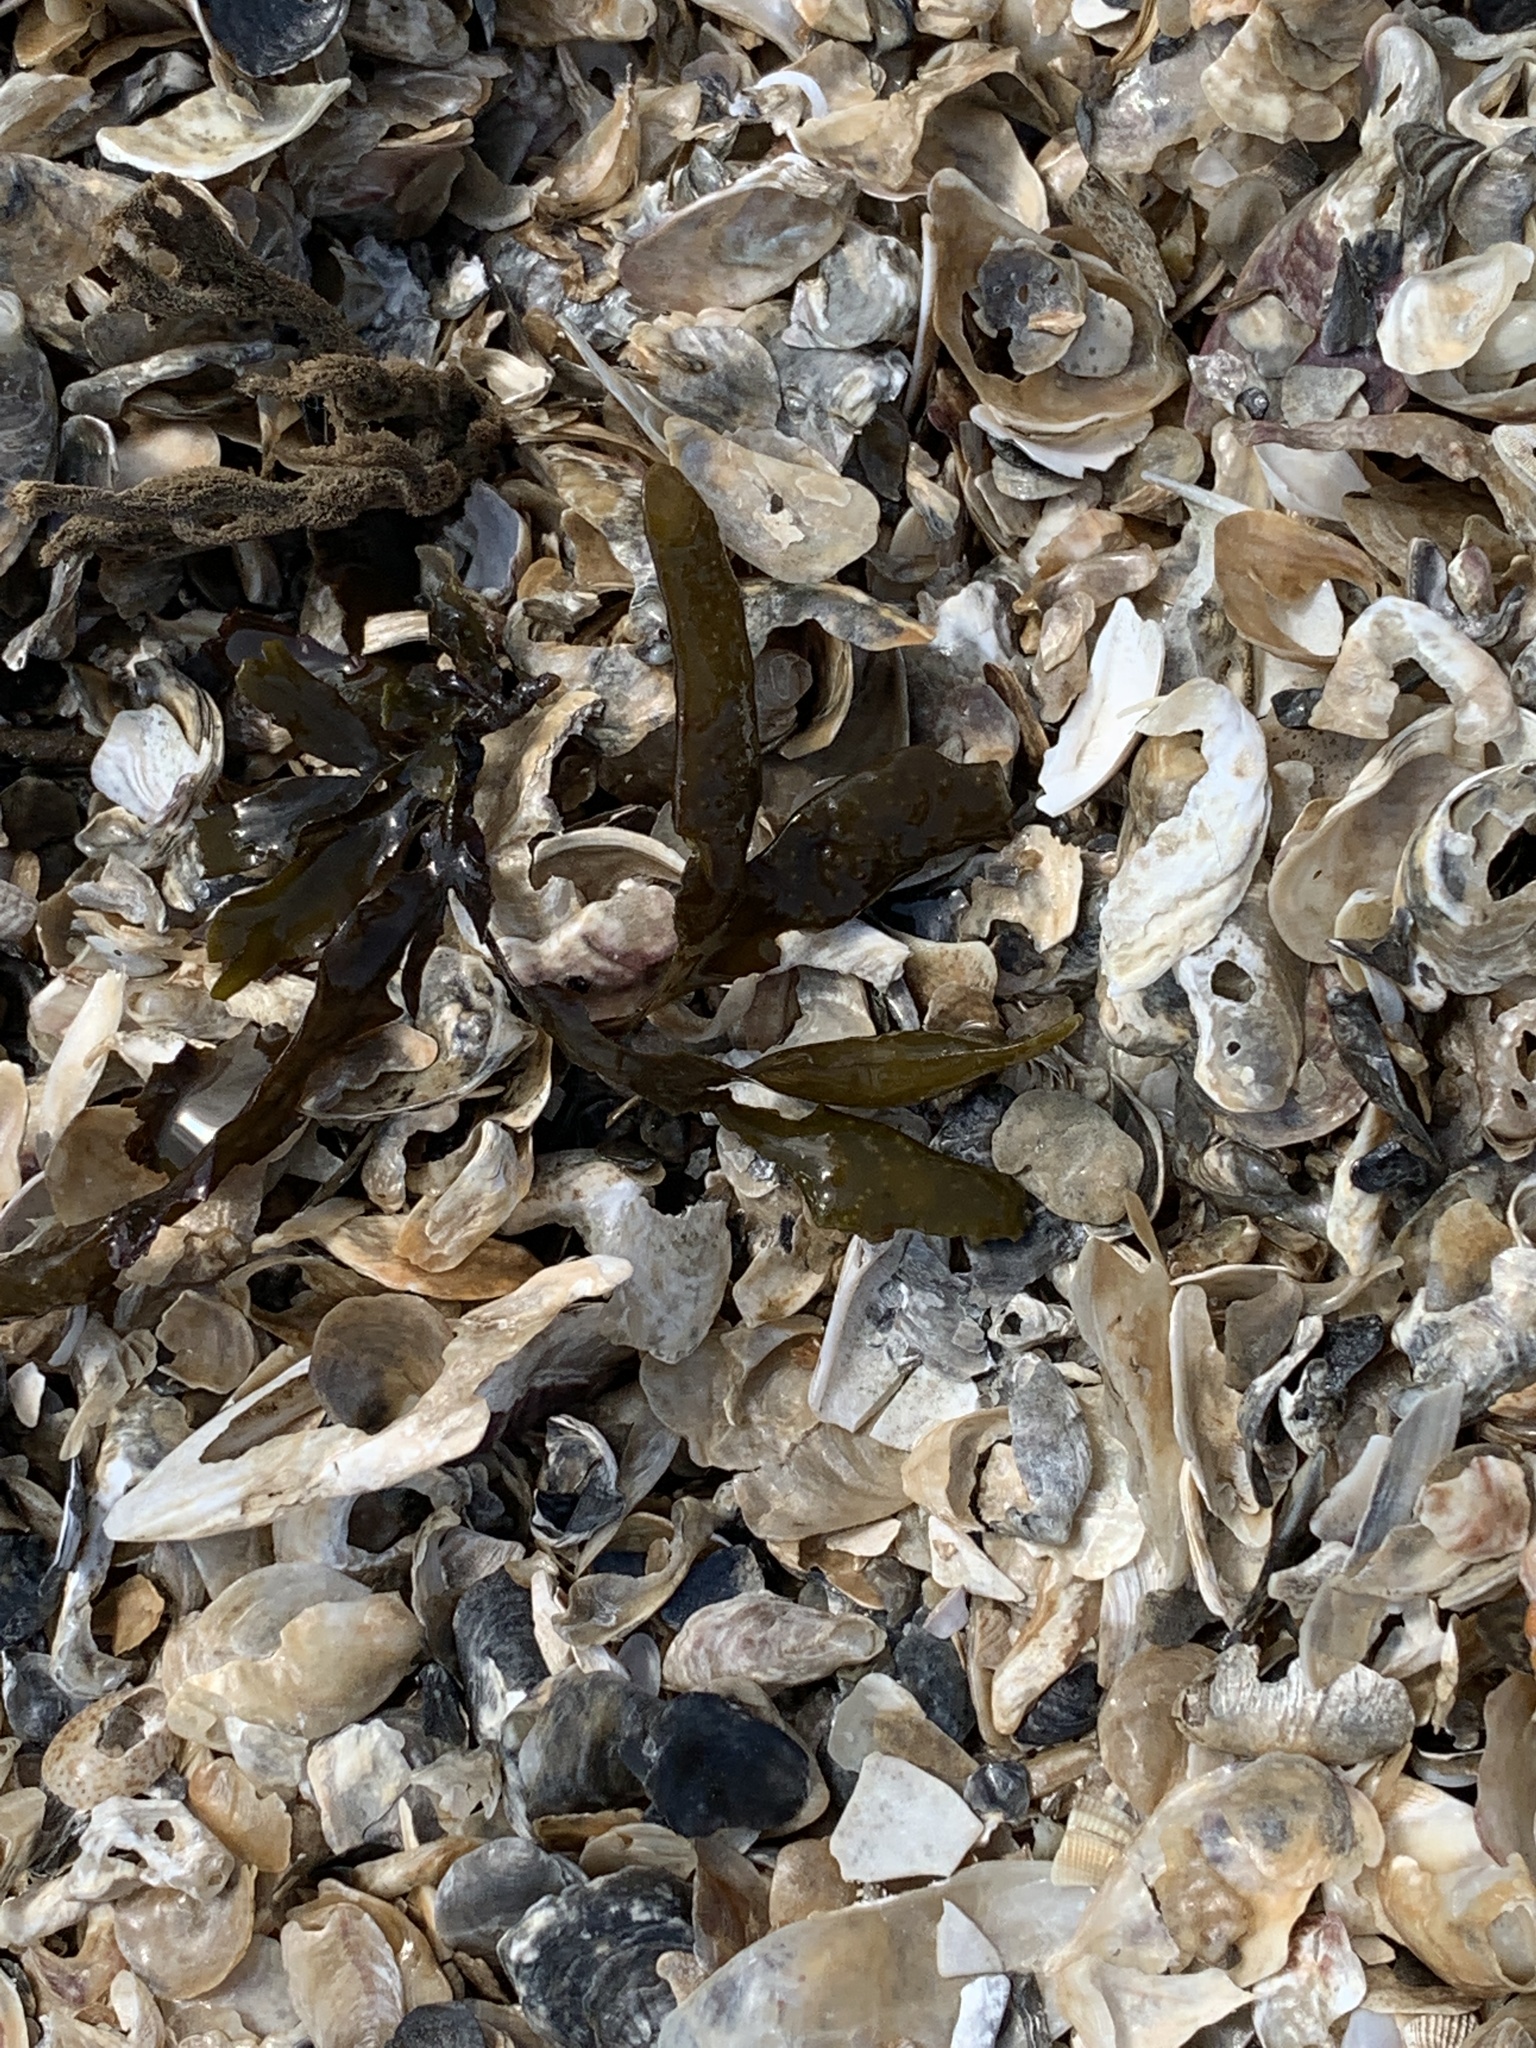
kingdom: Chromista
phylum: Ochrophyta
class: Phaeophyceae
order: Fucales
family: Fucaceae
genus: Fucus
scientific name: Fucus distichus
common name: Rockweed
